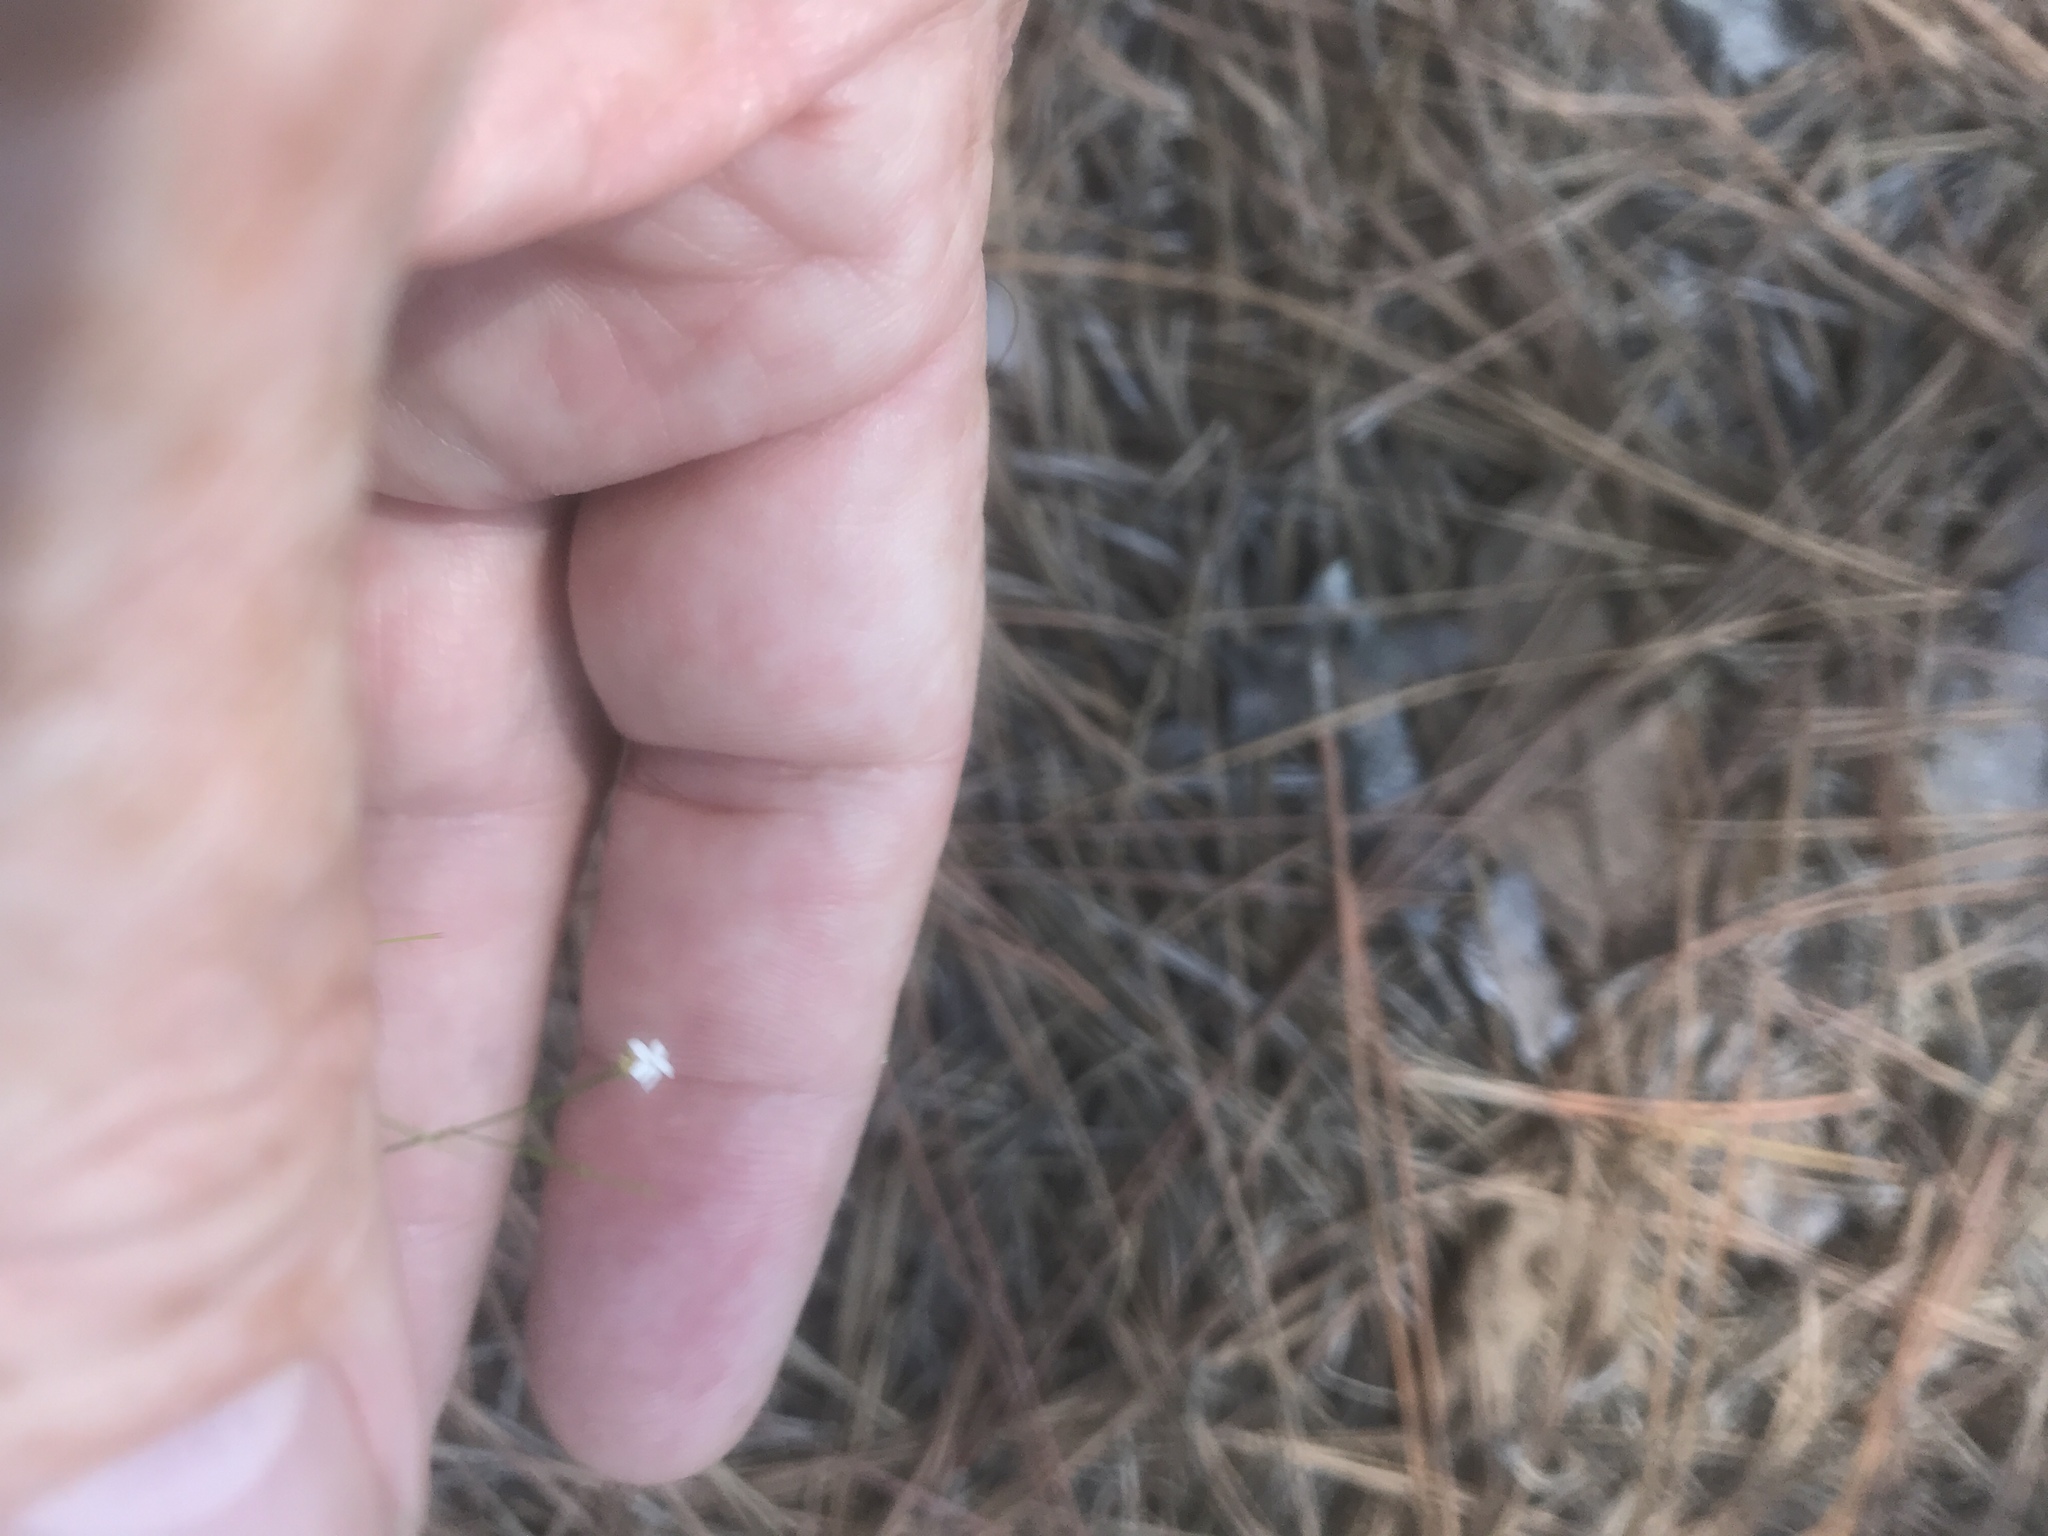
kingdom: Plantae
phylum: Tracheophyta
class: Magnoliopsida
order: Caryophyllales
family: Caryophyllaceae
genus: Stipulicida
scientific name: Stipulicida setacea
